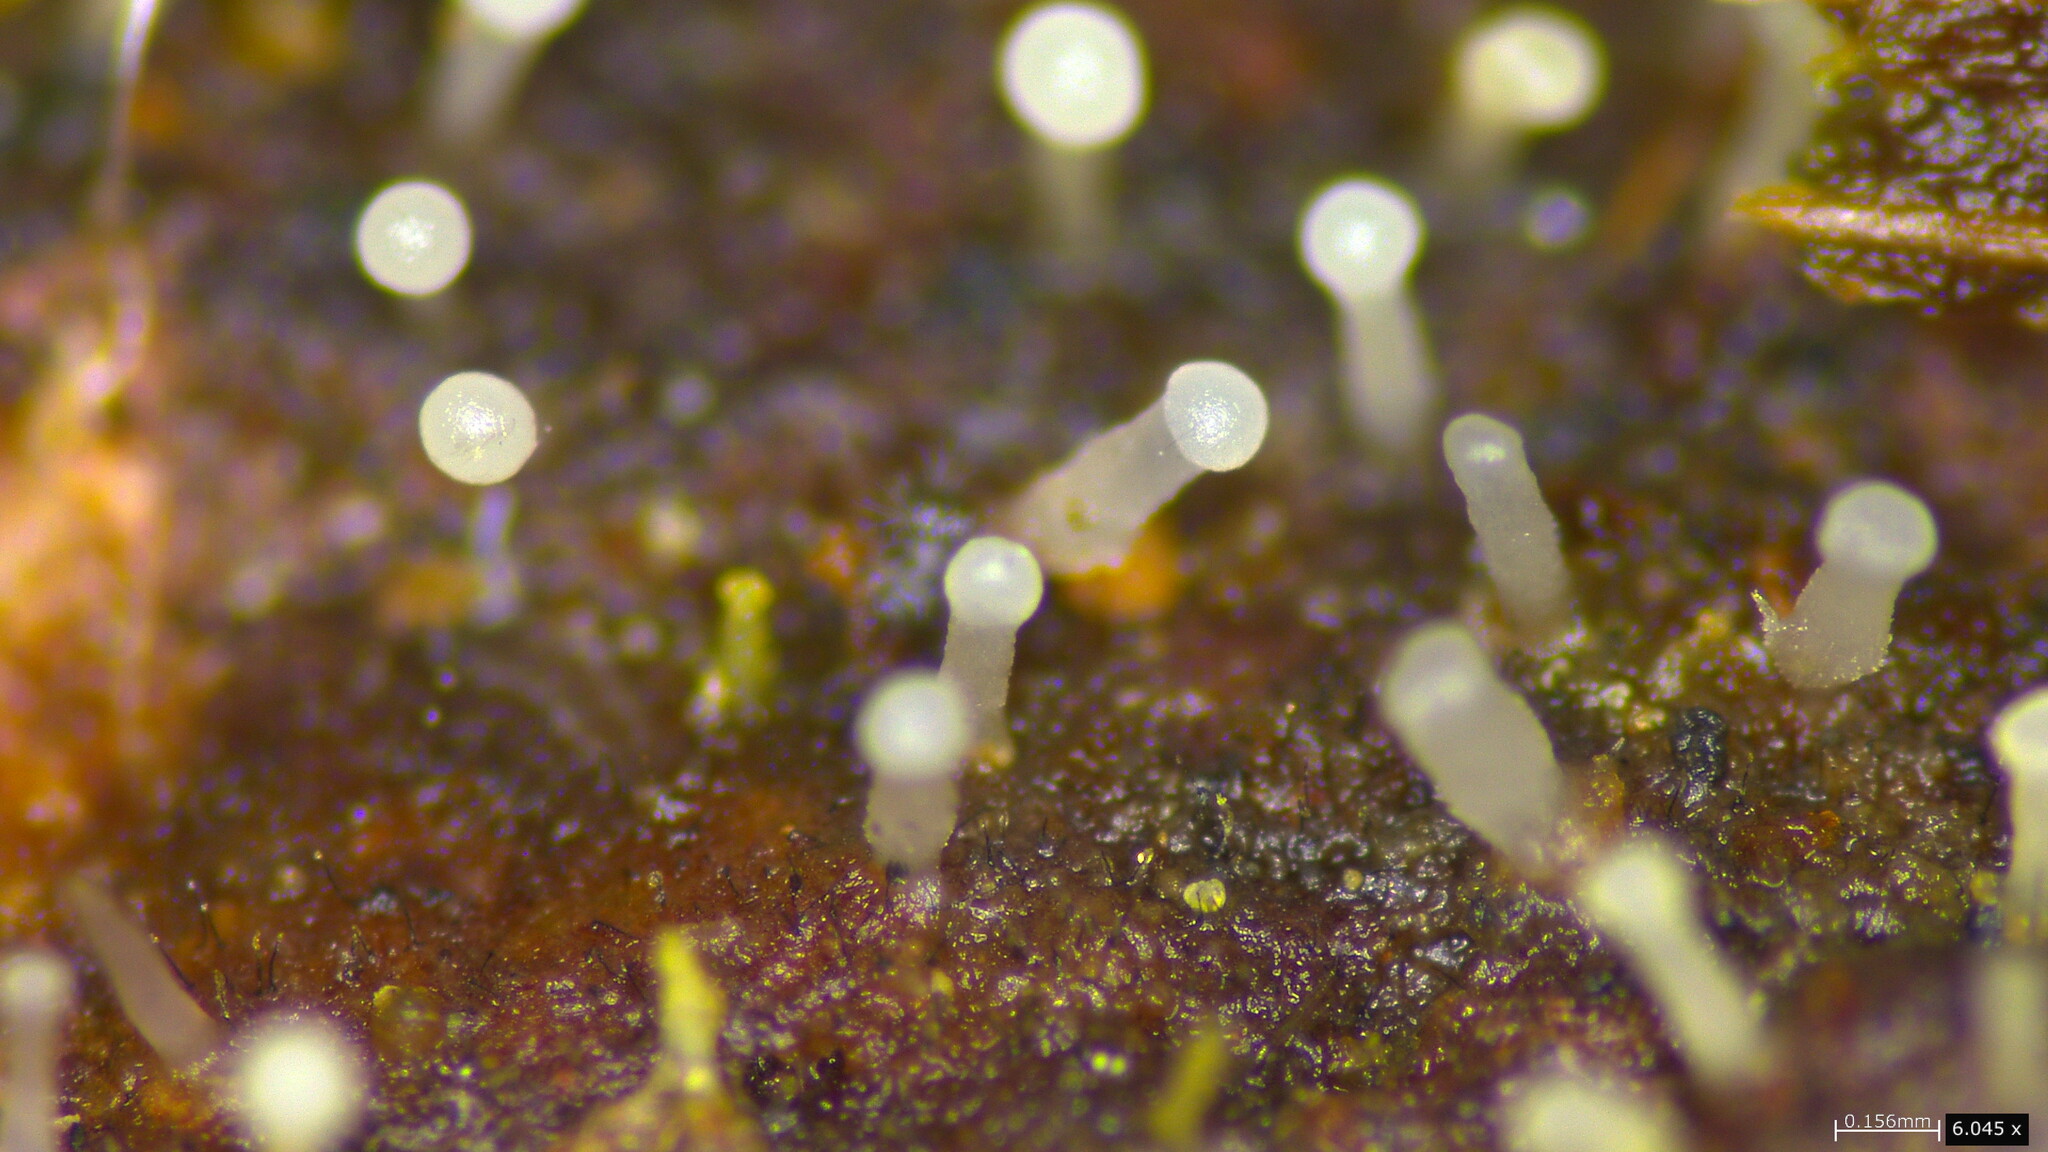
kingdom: Fungi
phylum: Basidiomycota
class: Agaricomycetes
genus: Gloeosynnema
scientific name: Gloeosynnema ochroleucum
